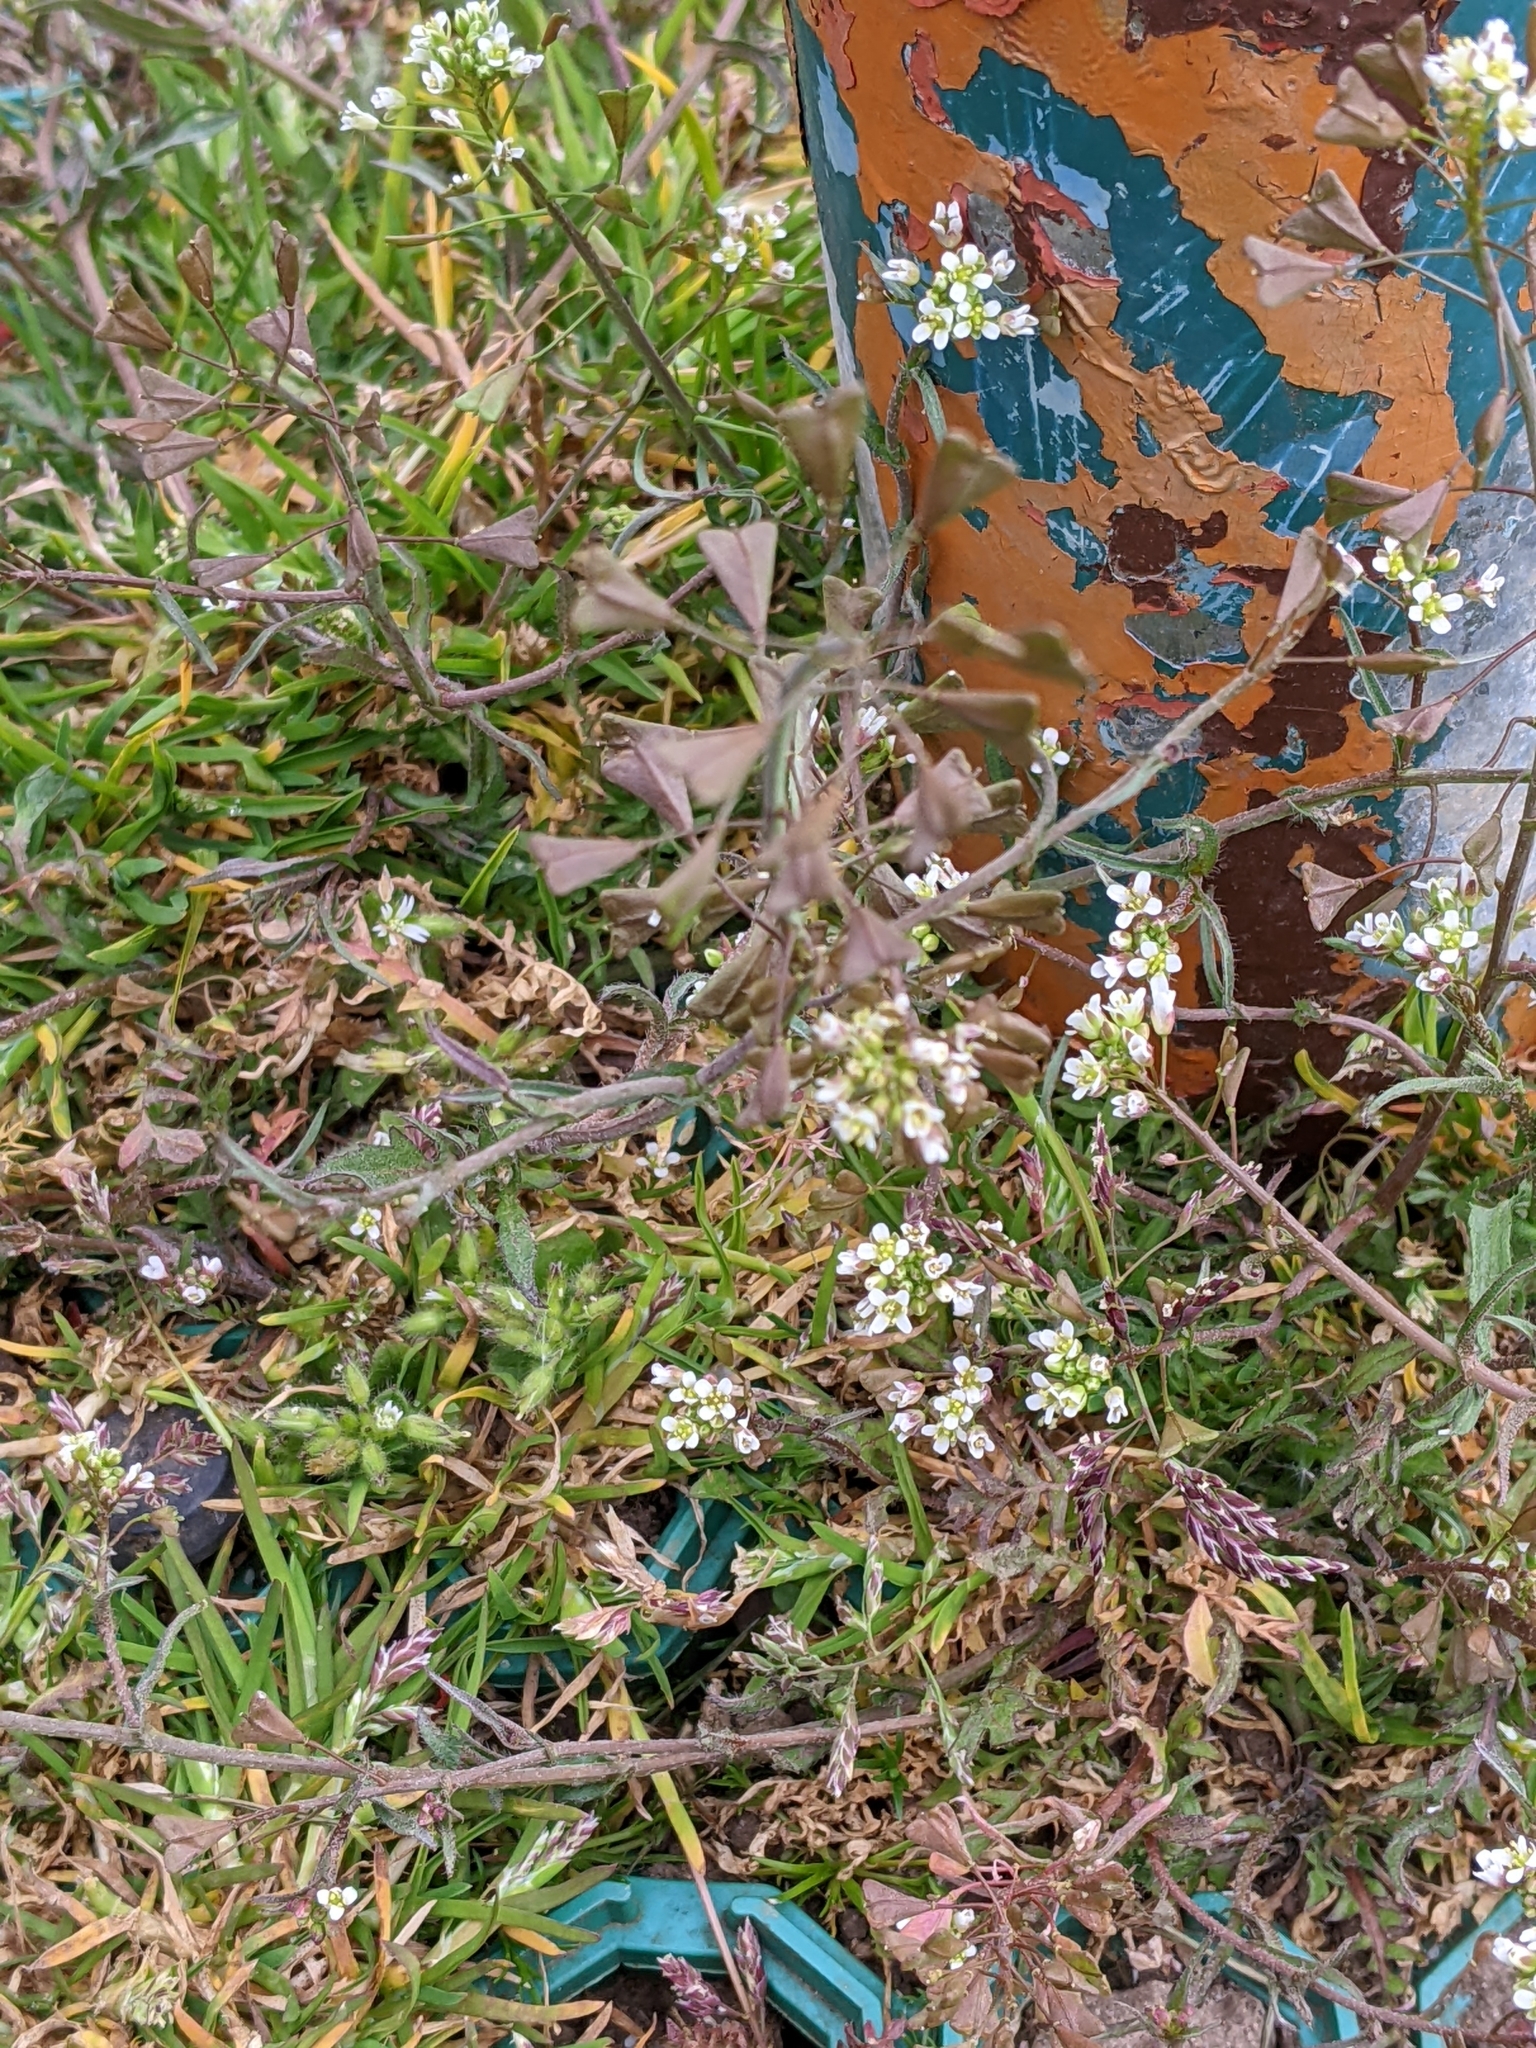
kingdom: Plantae
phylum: Tracheophyta
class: Magnoliopsida
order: Brassicales
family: Brassicaceae
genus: Capsella
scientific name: Capsella bursa-pastoris
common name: Shepherd's purse
